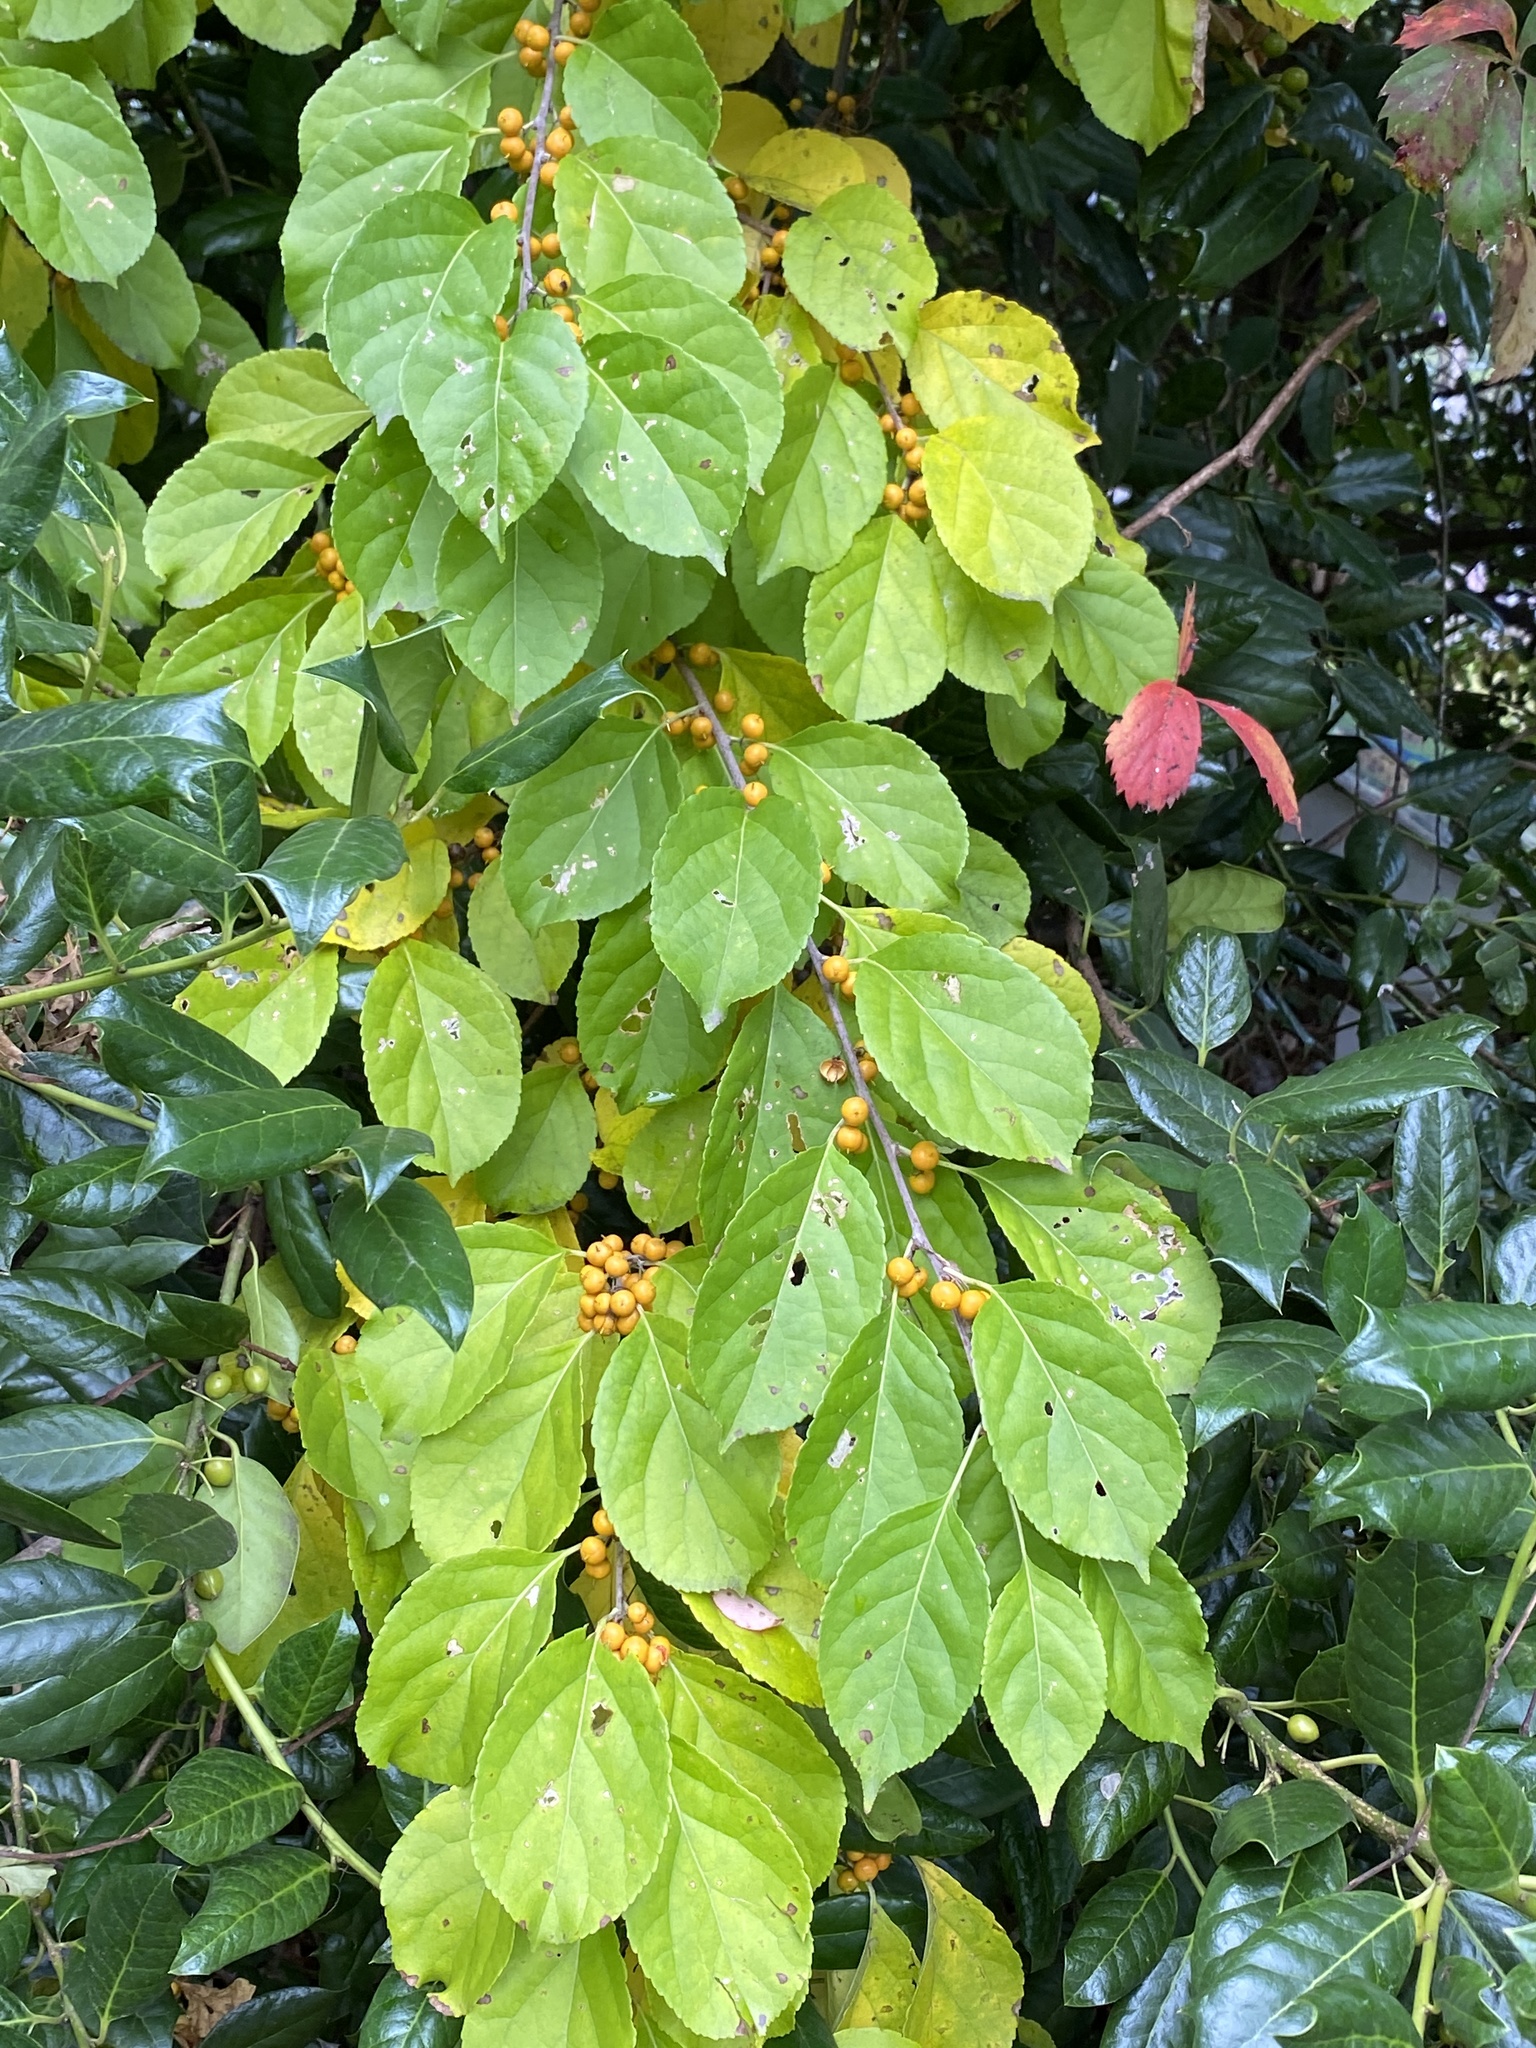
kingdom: Plantae
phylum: Tracheophyta
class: Magnoliopsida
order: Celastrales
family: Celastraceae
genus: Celastrus
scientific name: Celastrus orbiculatus
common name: Oriental bittersweet
